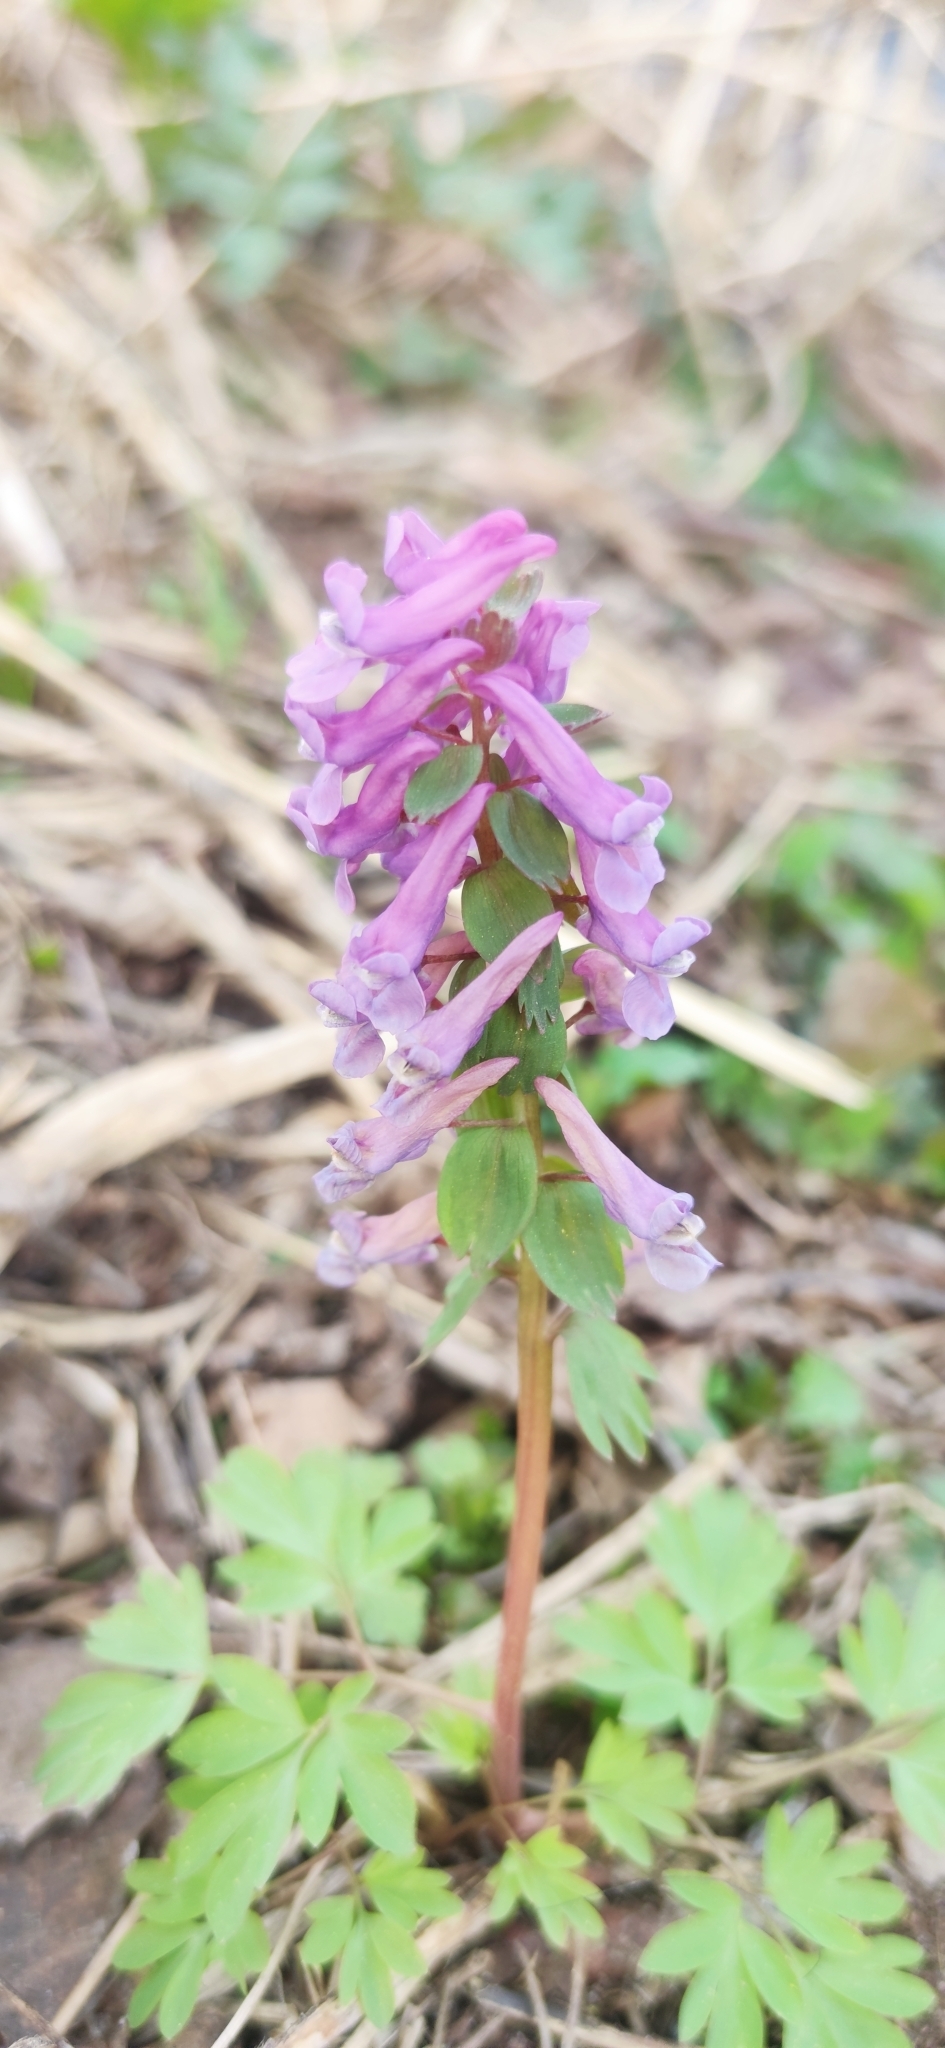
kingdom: Plantae
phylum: Tracheophyta
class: Magnoliopsida
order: Ranunculales
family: Papaveraceae
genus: Corydalis
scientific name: Corydalis solida
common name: Bird-in-a-bush
